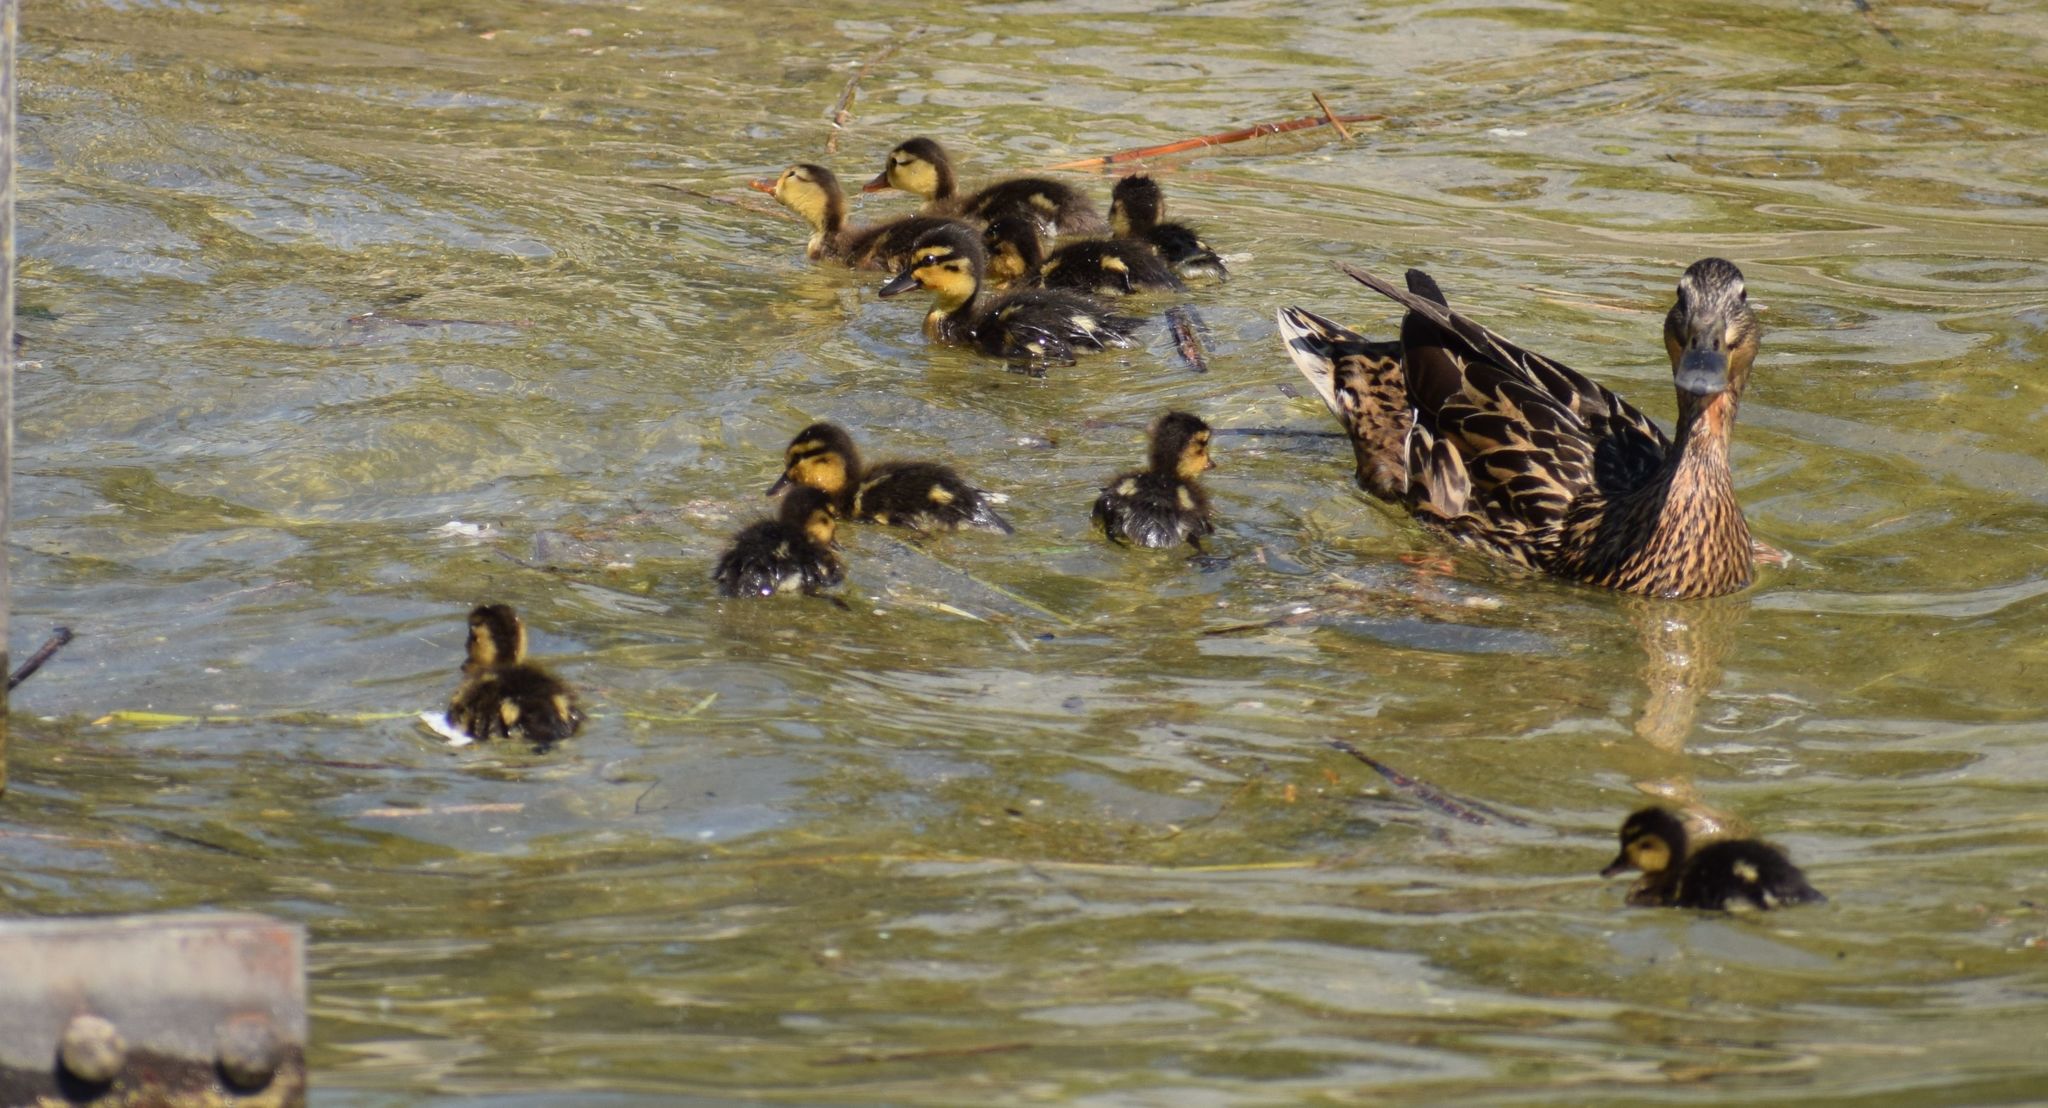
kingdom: Animalia
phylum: Chordata
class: Aves
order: Anseriformes
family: Anatidae
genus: Anas
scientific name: Anas platyrhynchos
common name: Mallard
